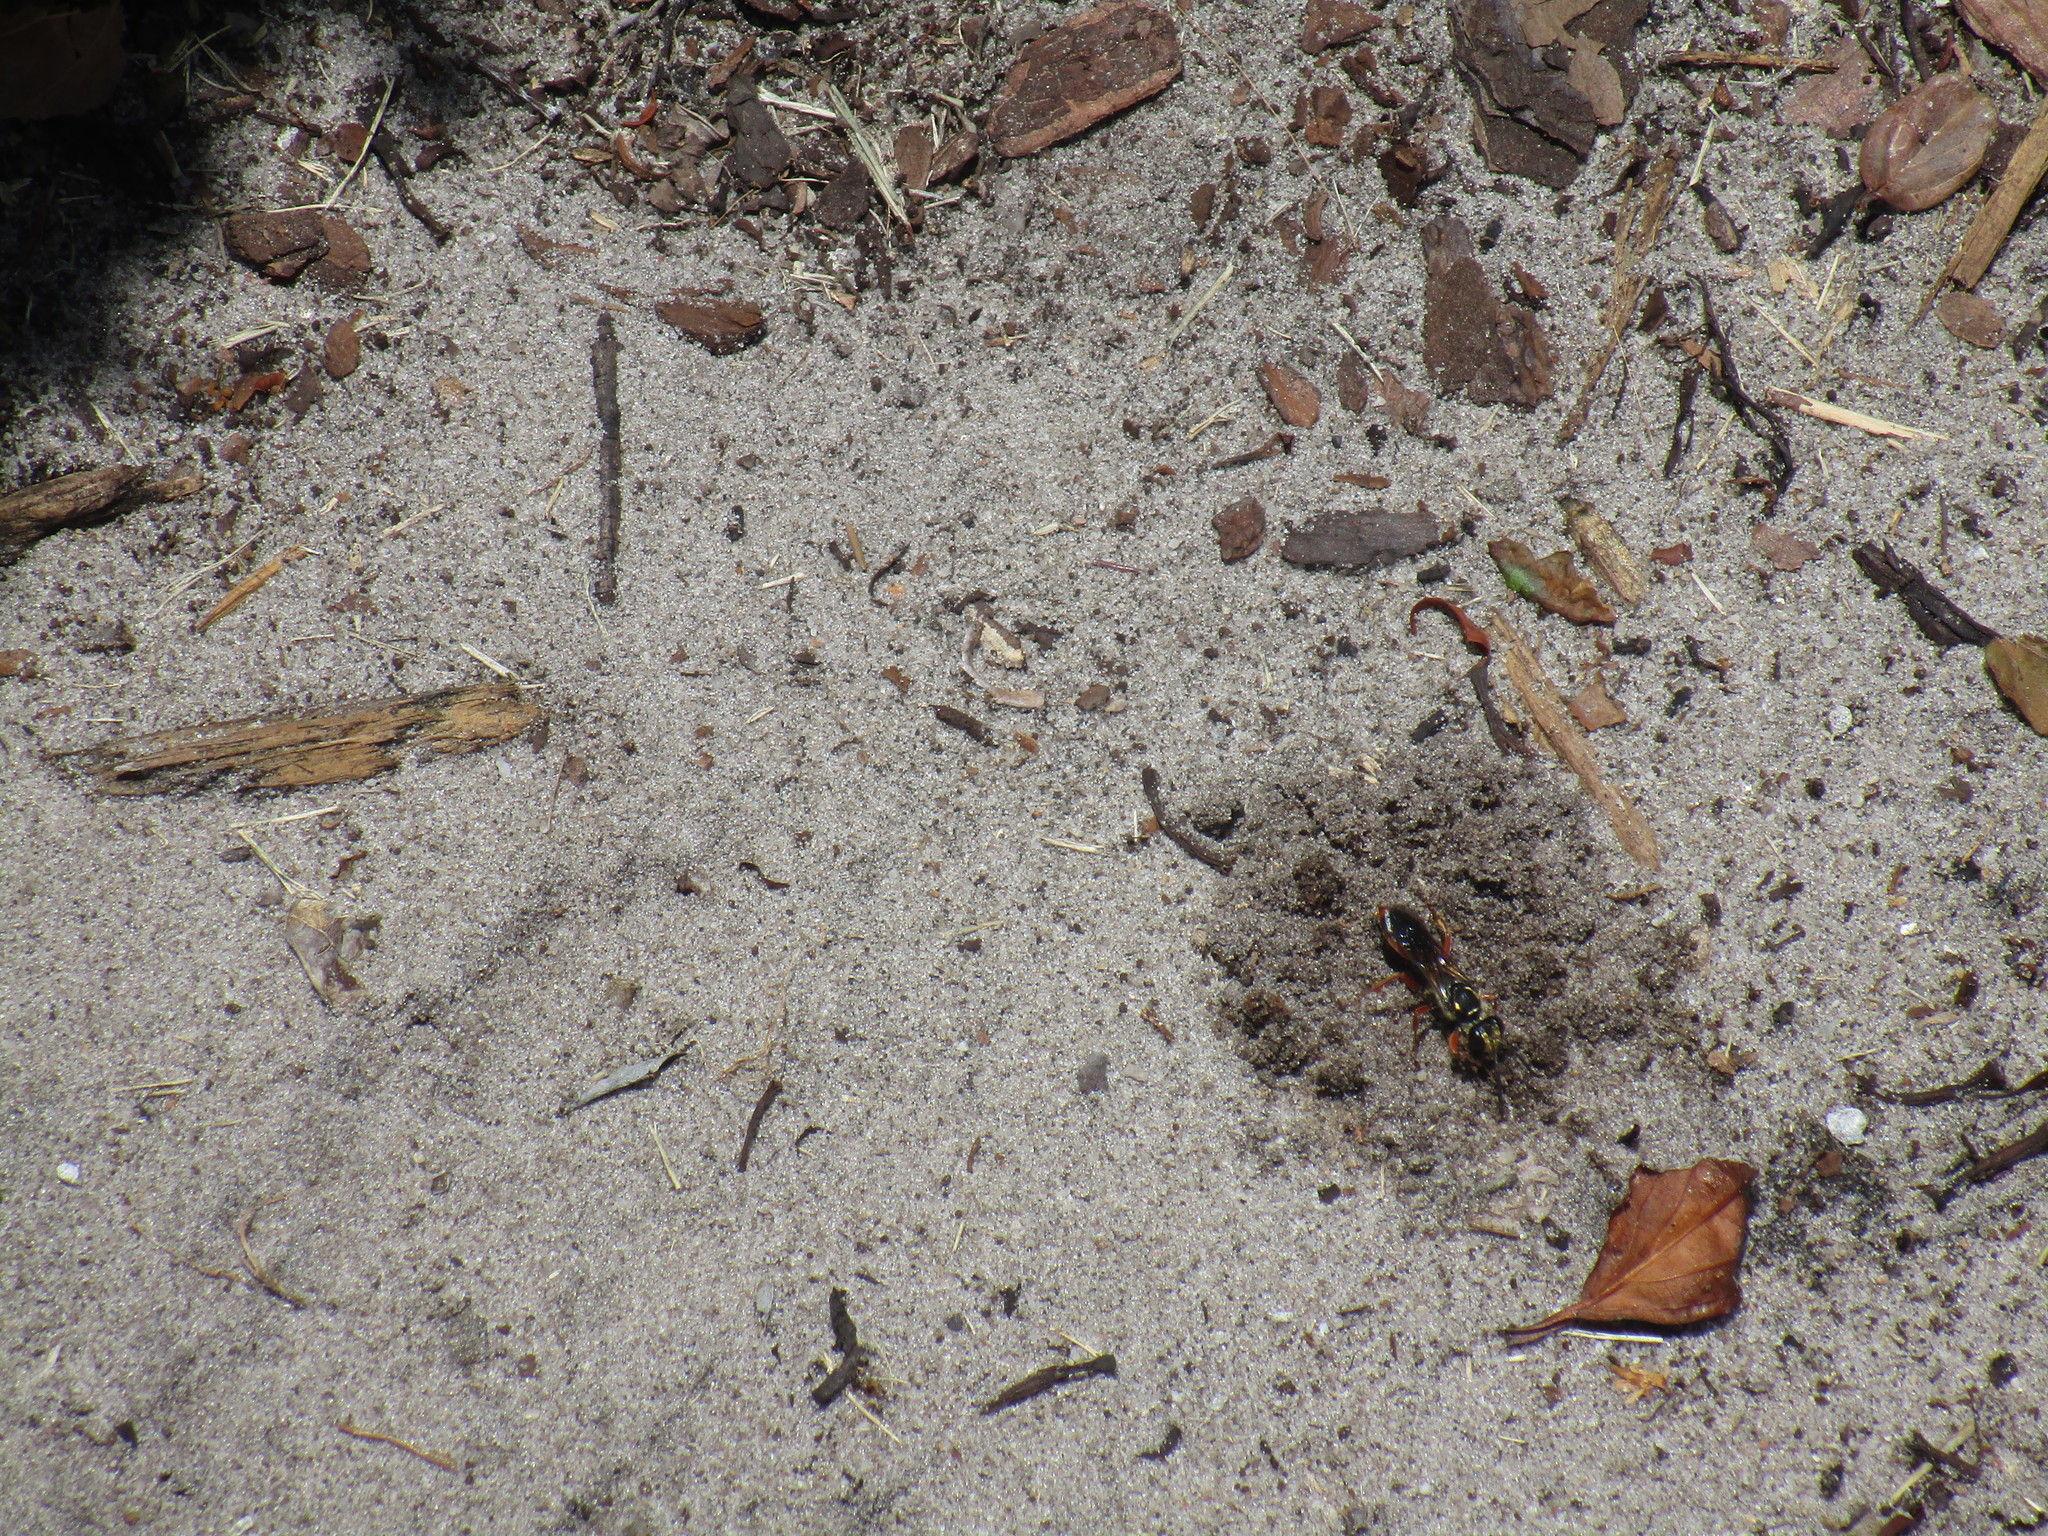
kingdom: Animalia
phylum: Arthropoda
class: Insecta
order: Hymenoptera
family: Sphecidae
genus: Sphex
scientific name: Sphex dorsalis
